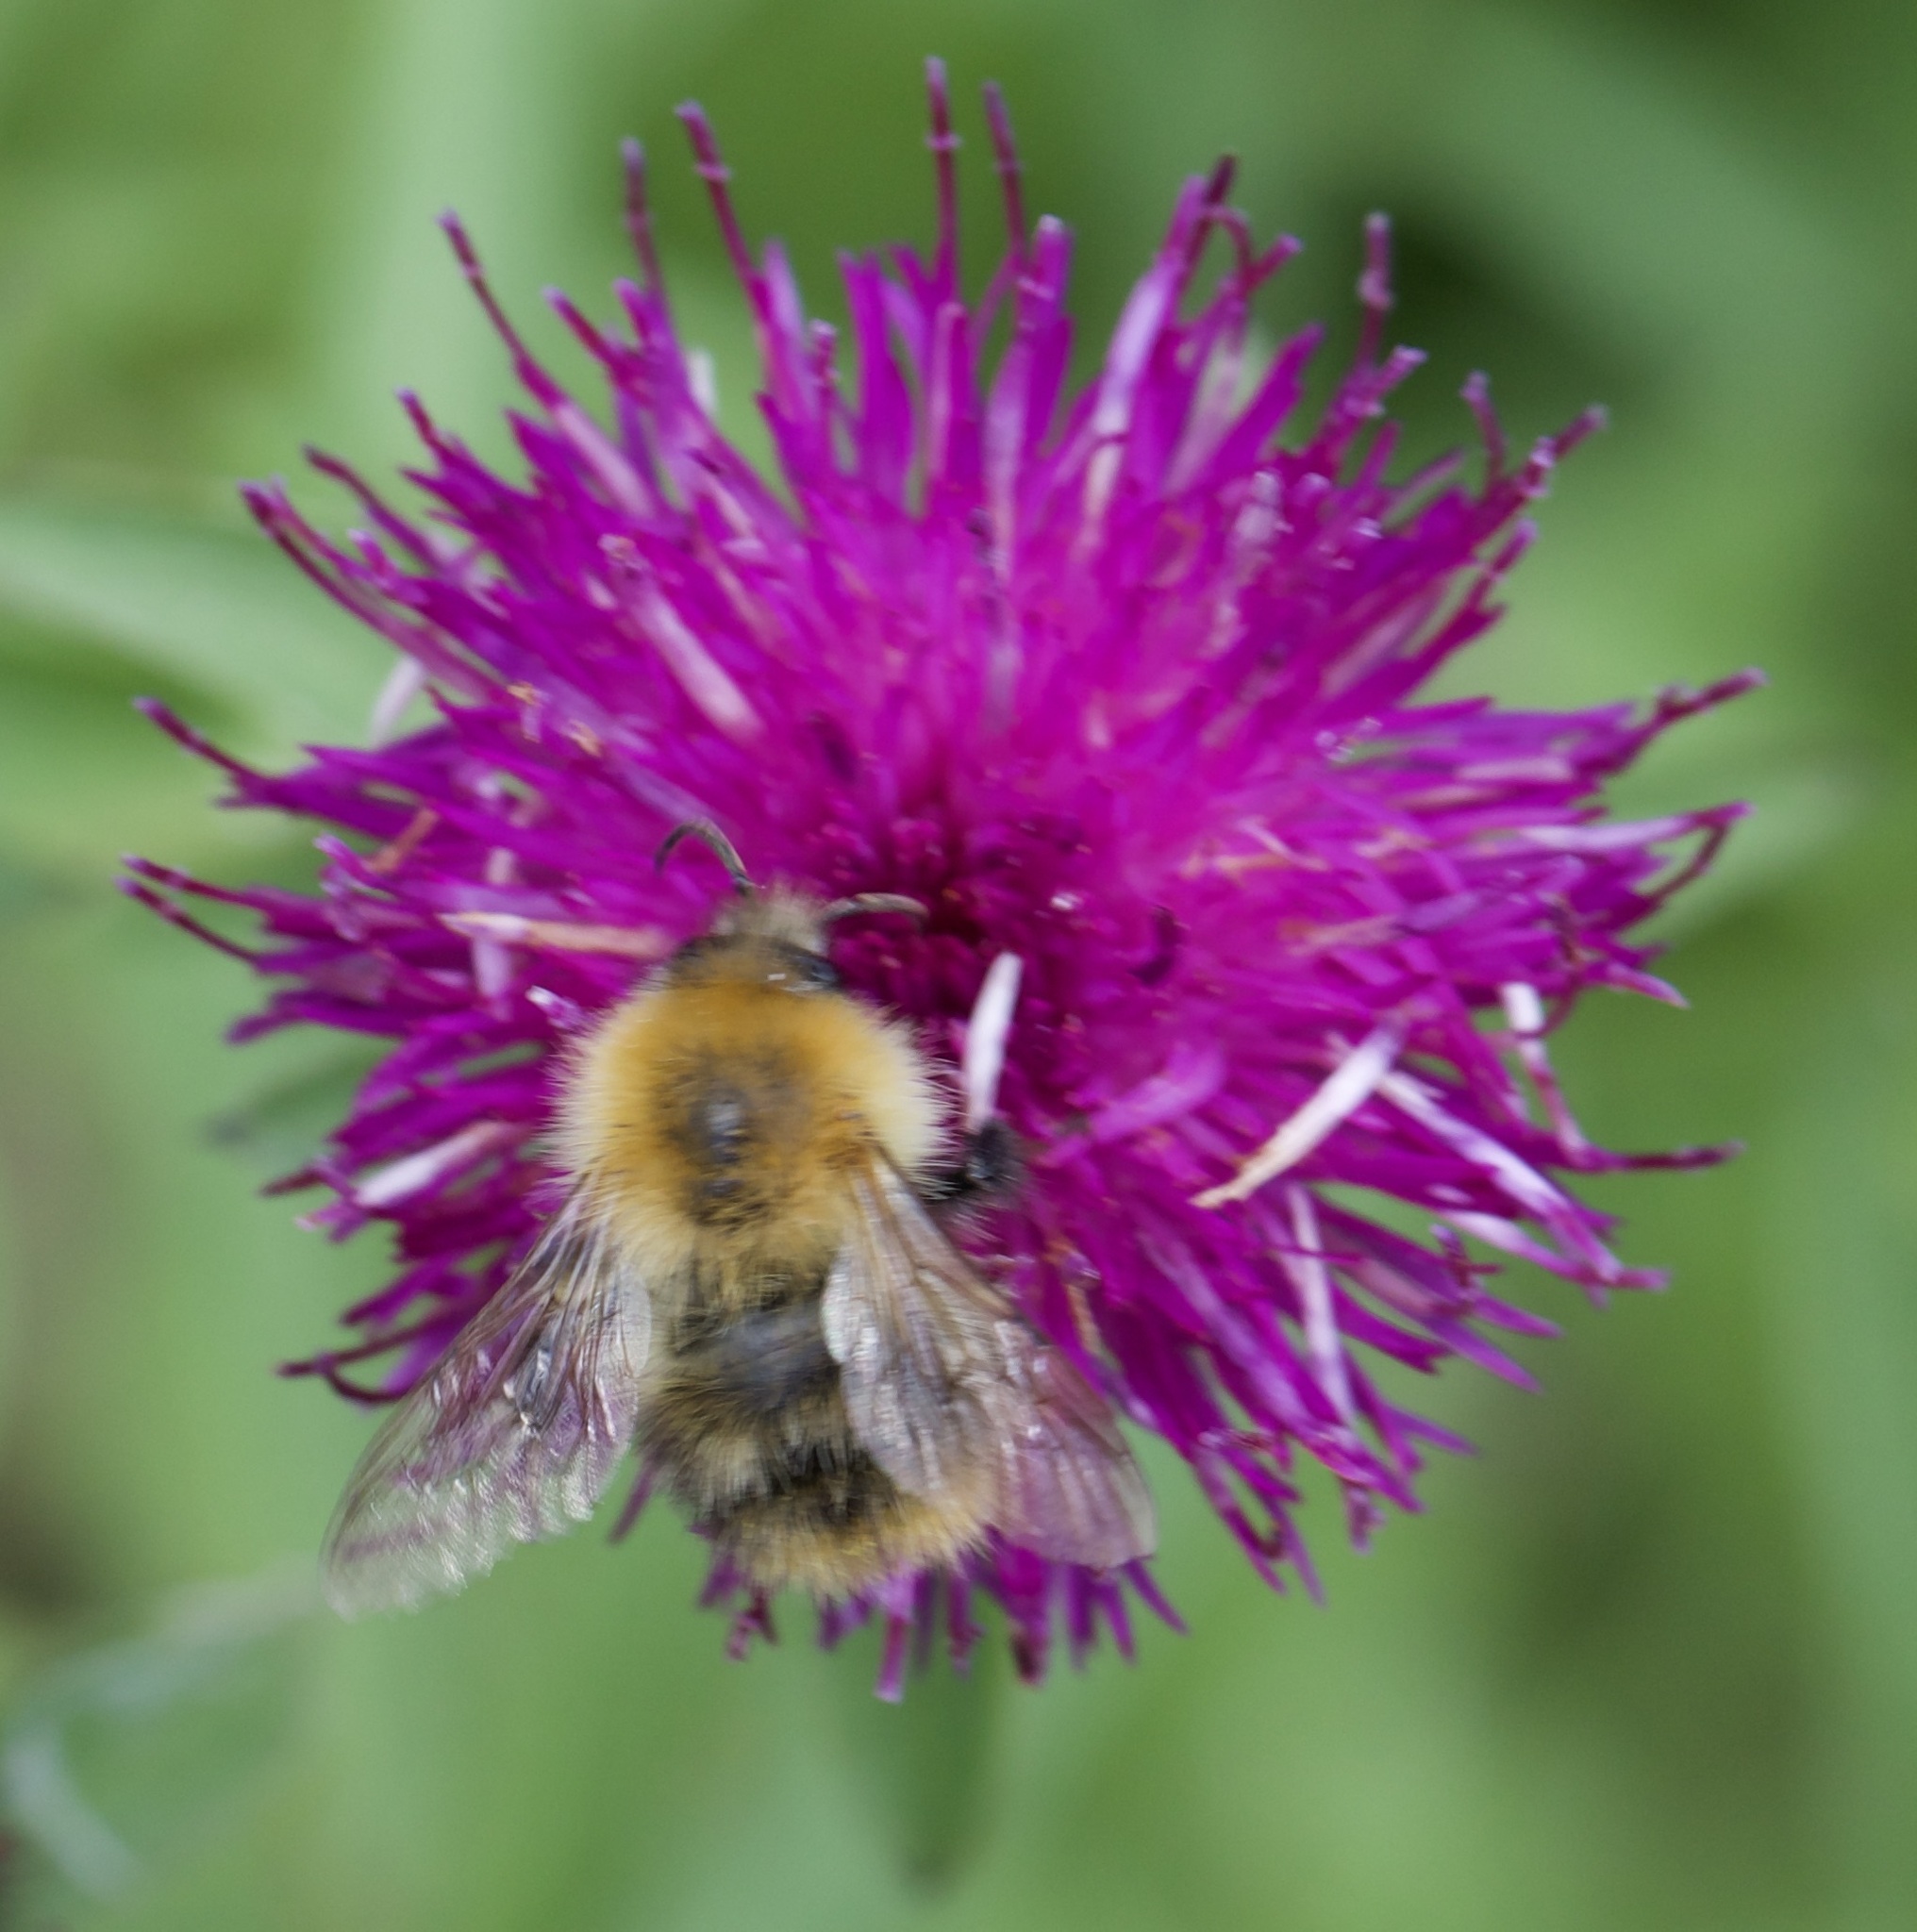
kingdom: Animalia
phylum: Arthropoda
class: Insecta
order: Hymenoptera
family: Apidae
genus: Bombus
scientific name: Bombus pascuorum
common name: Common carder bee
